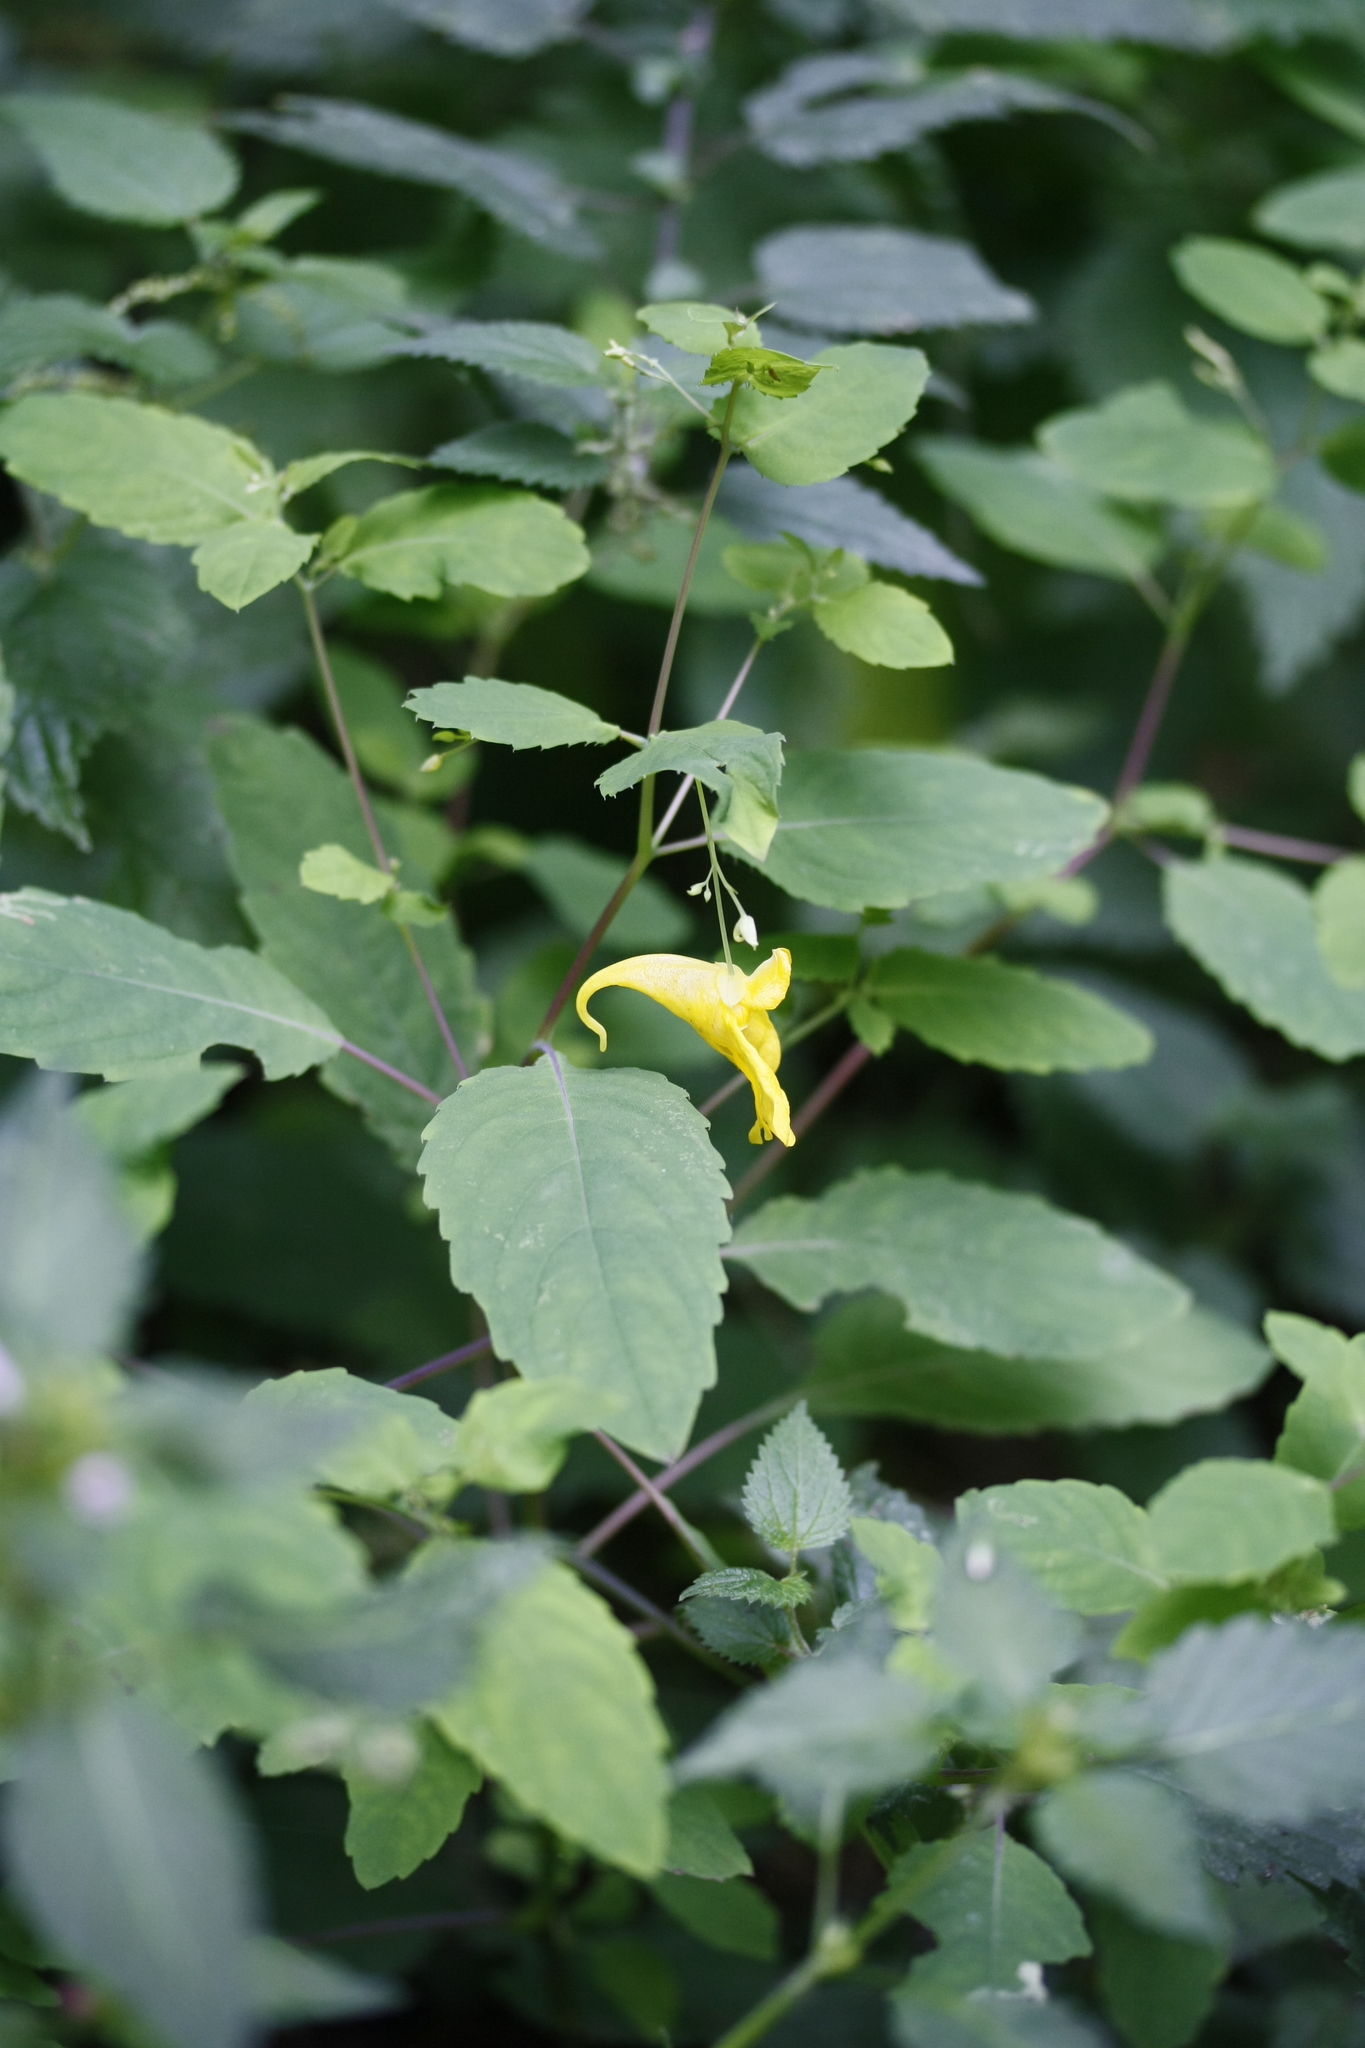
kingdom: Plantae
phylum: Tracheophyta
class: Magnoliopsida
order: Ericales
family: Balsaminaceae
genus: Impatiens
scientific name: Impatiens noli-tangere
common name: Touch-me-not balsam
